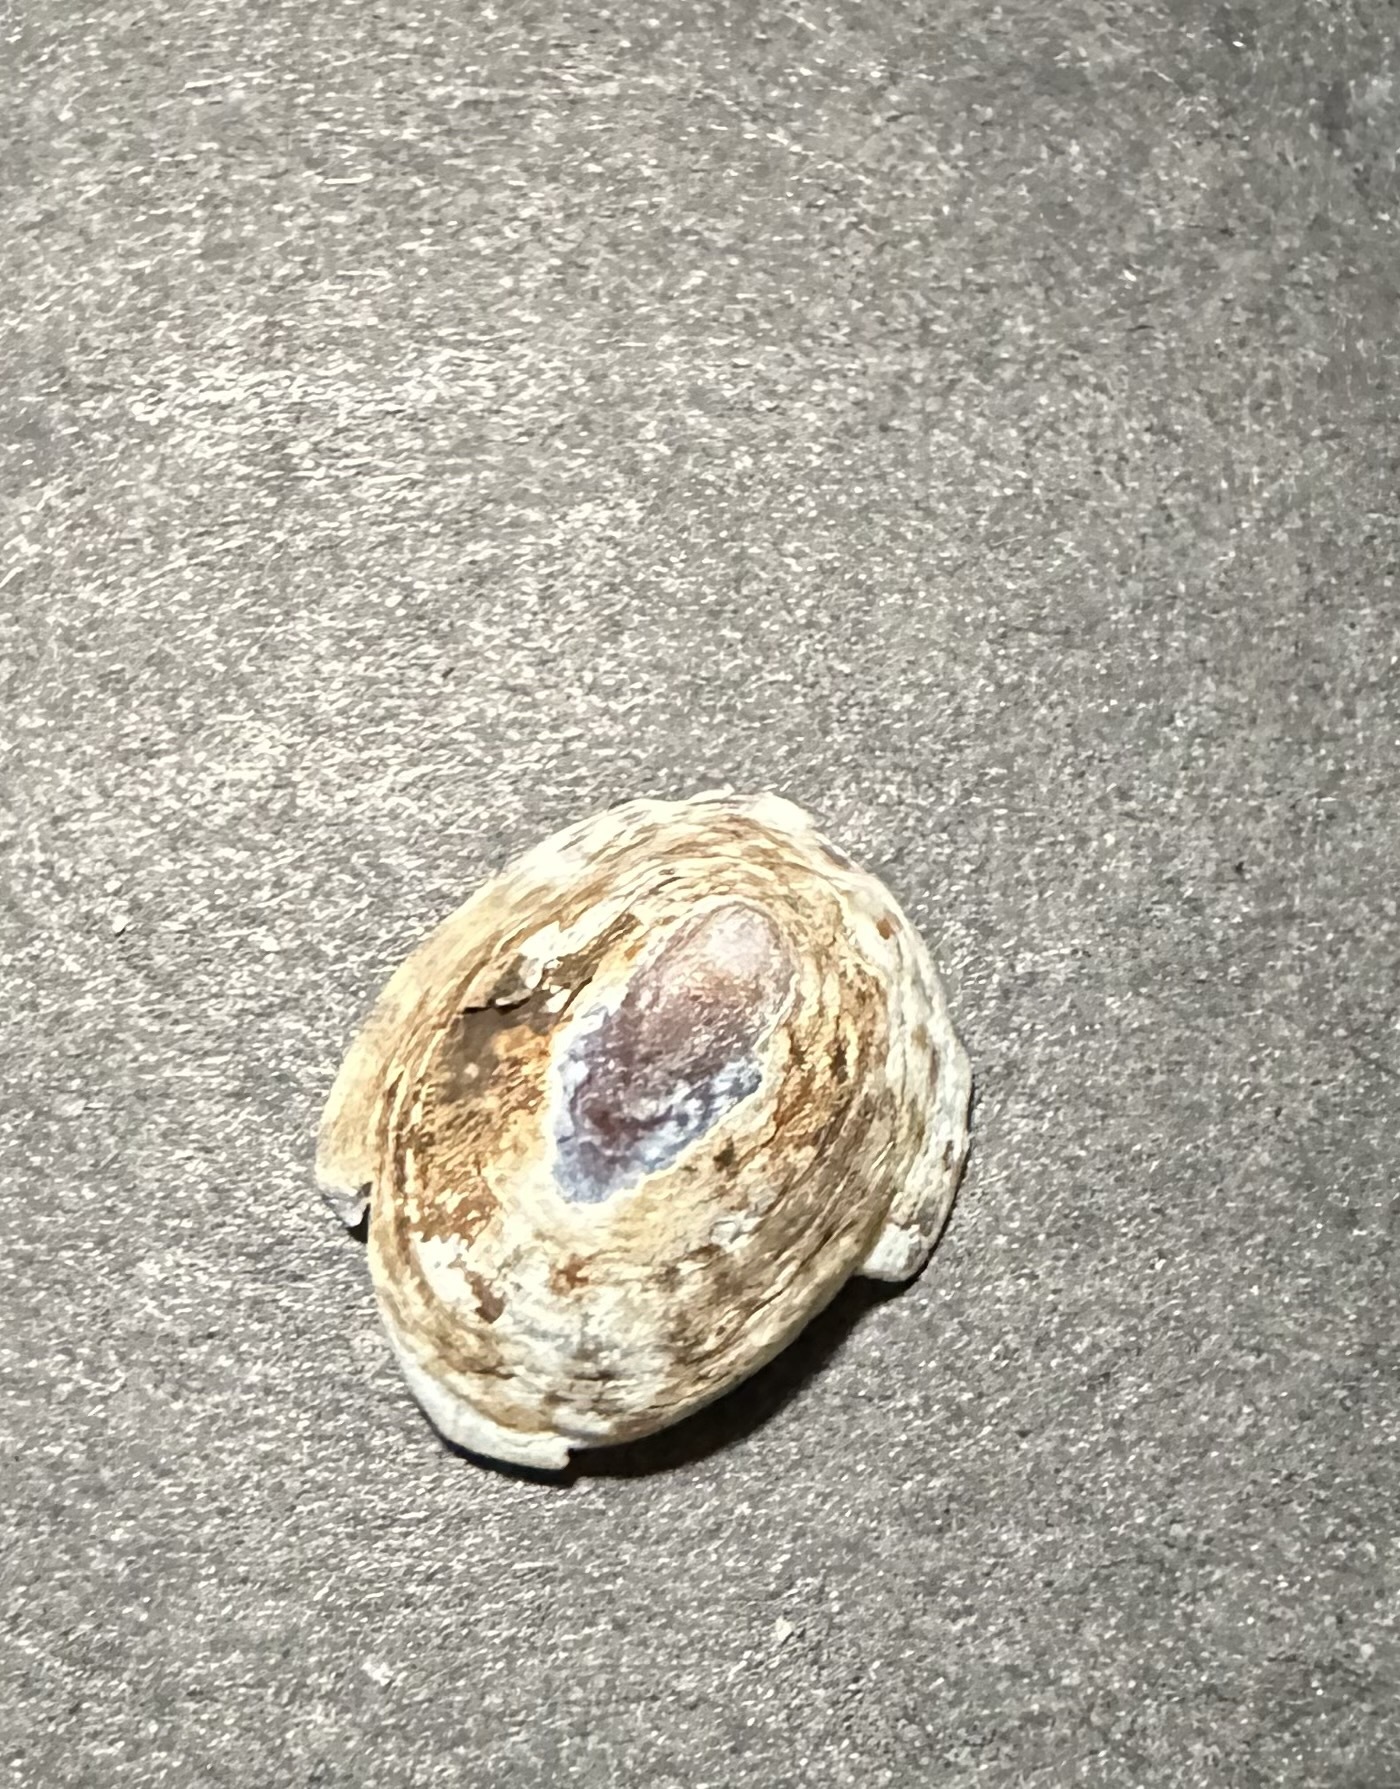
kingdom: Animalia
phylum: Mollusca
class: Gastropoda
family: Lottiidae
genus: Testudinalia
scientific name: Testudinalia testudinalis
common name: Common tortoiseshell limpet
